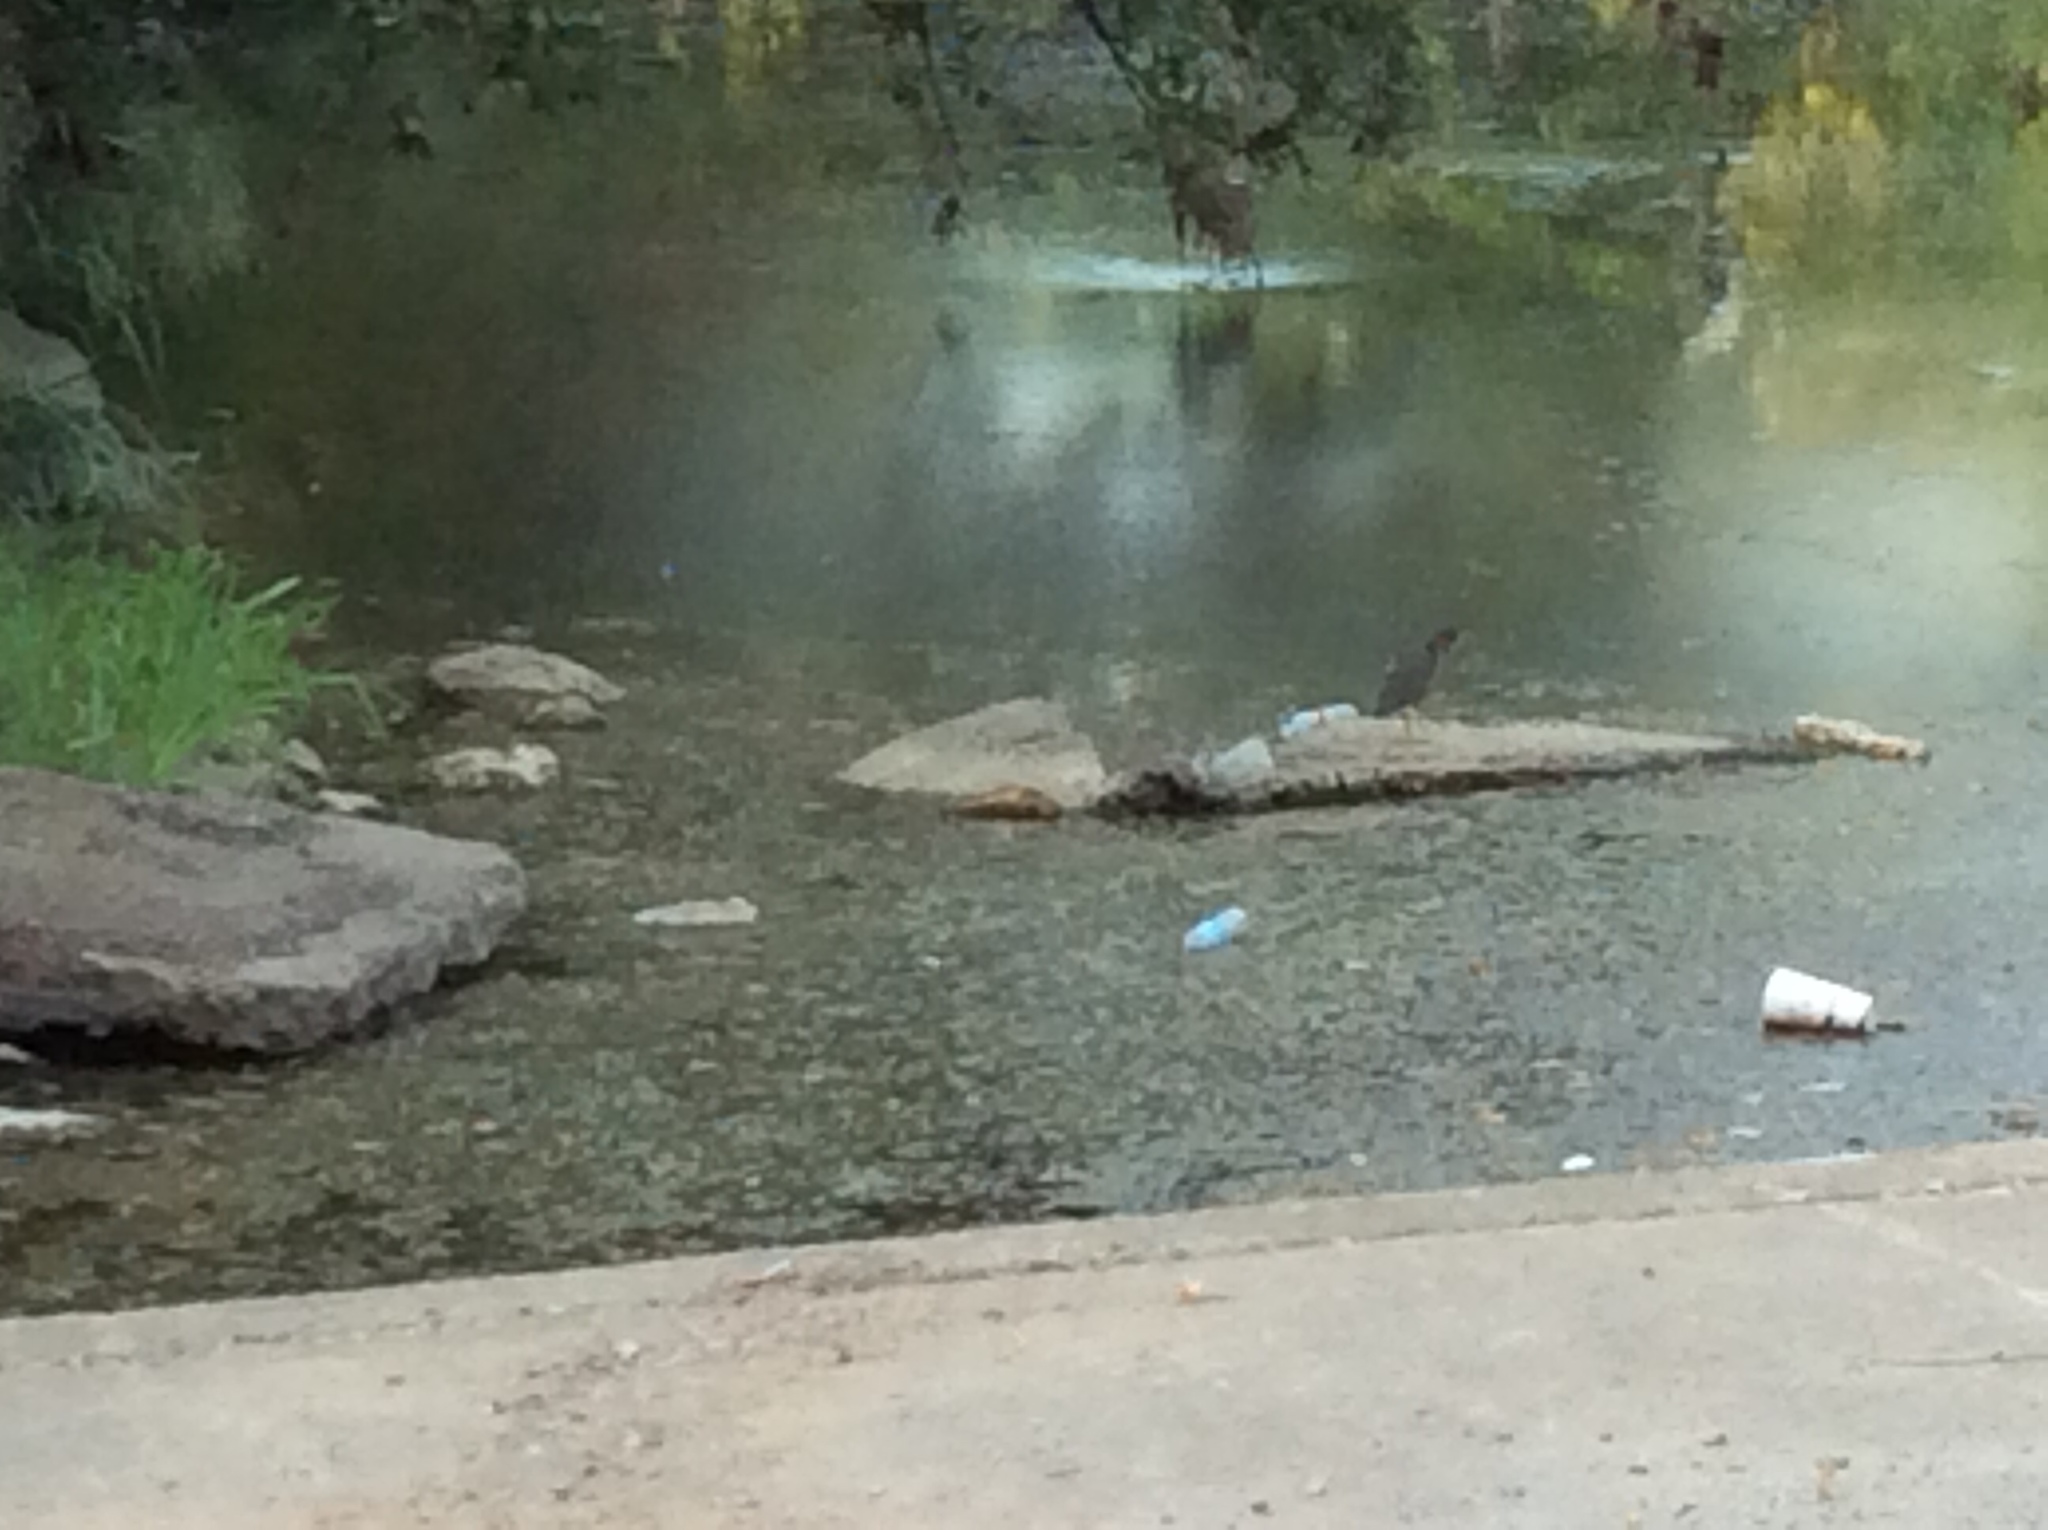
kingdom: Animalia
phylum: Chordata
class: Aves
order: Pelecaniformes
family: Ardeidae
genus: Butorides
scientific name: Butorides virescens
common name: Green heron
